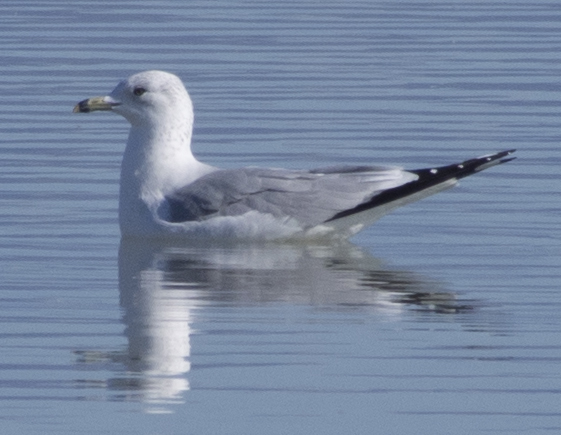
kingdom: Animalia
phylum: Chordata
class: Aves
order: Charadriiformes
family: Laridae
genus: Larus
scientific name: Larus delawarensis
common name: Ring-billed gull
